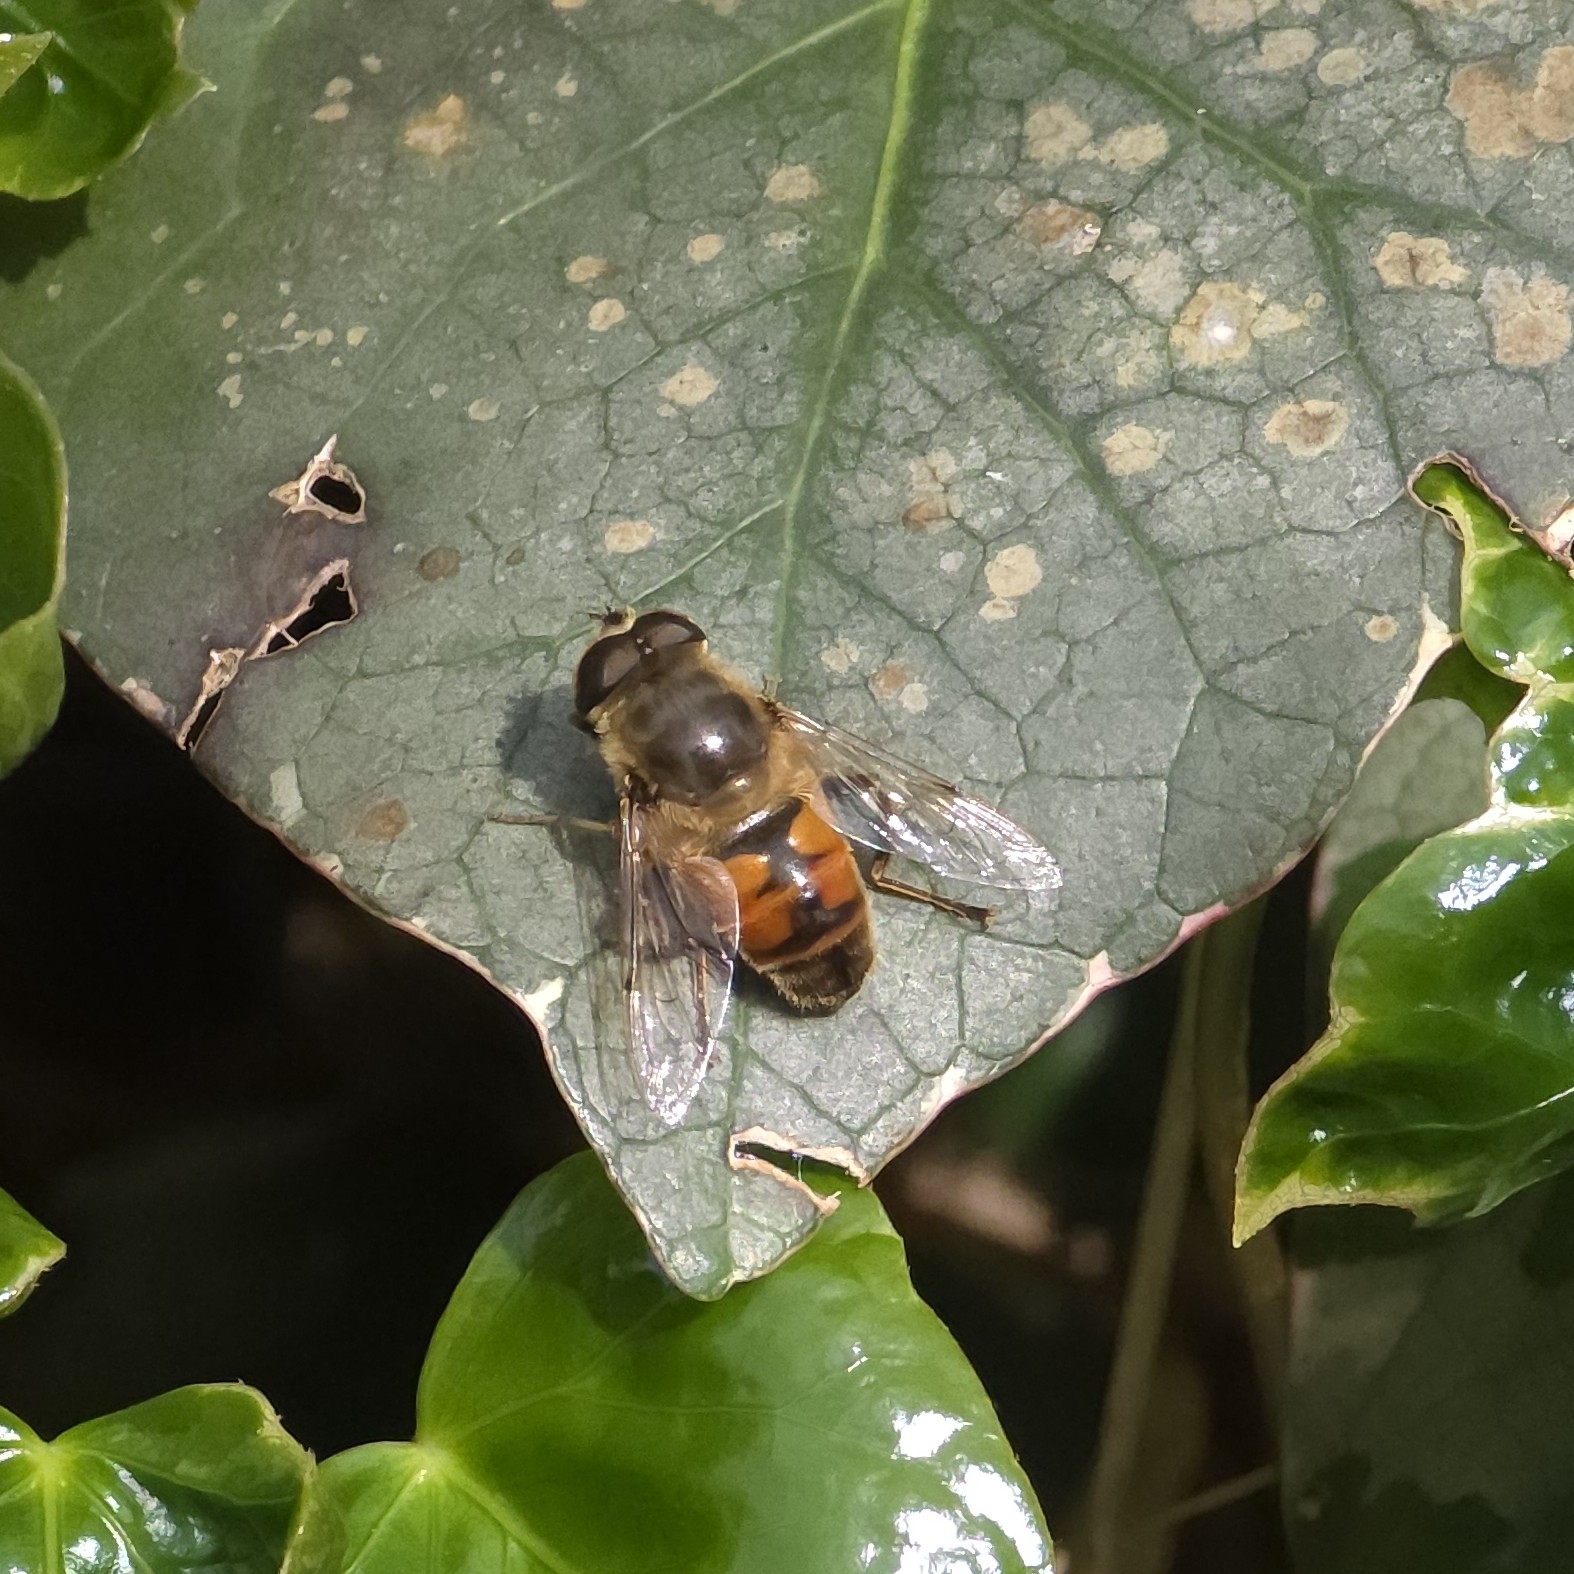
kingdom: Animalia
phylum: Arthropoda
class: Insecta
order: Diptera
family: Syrphidae
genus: Eristalis
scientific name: Eristalis tenax
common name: Drone fly
